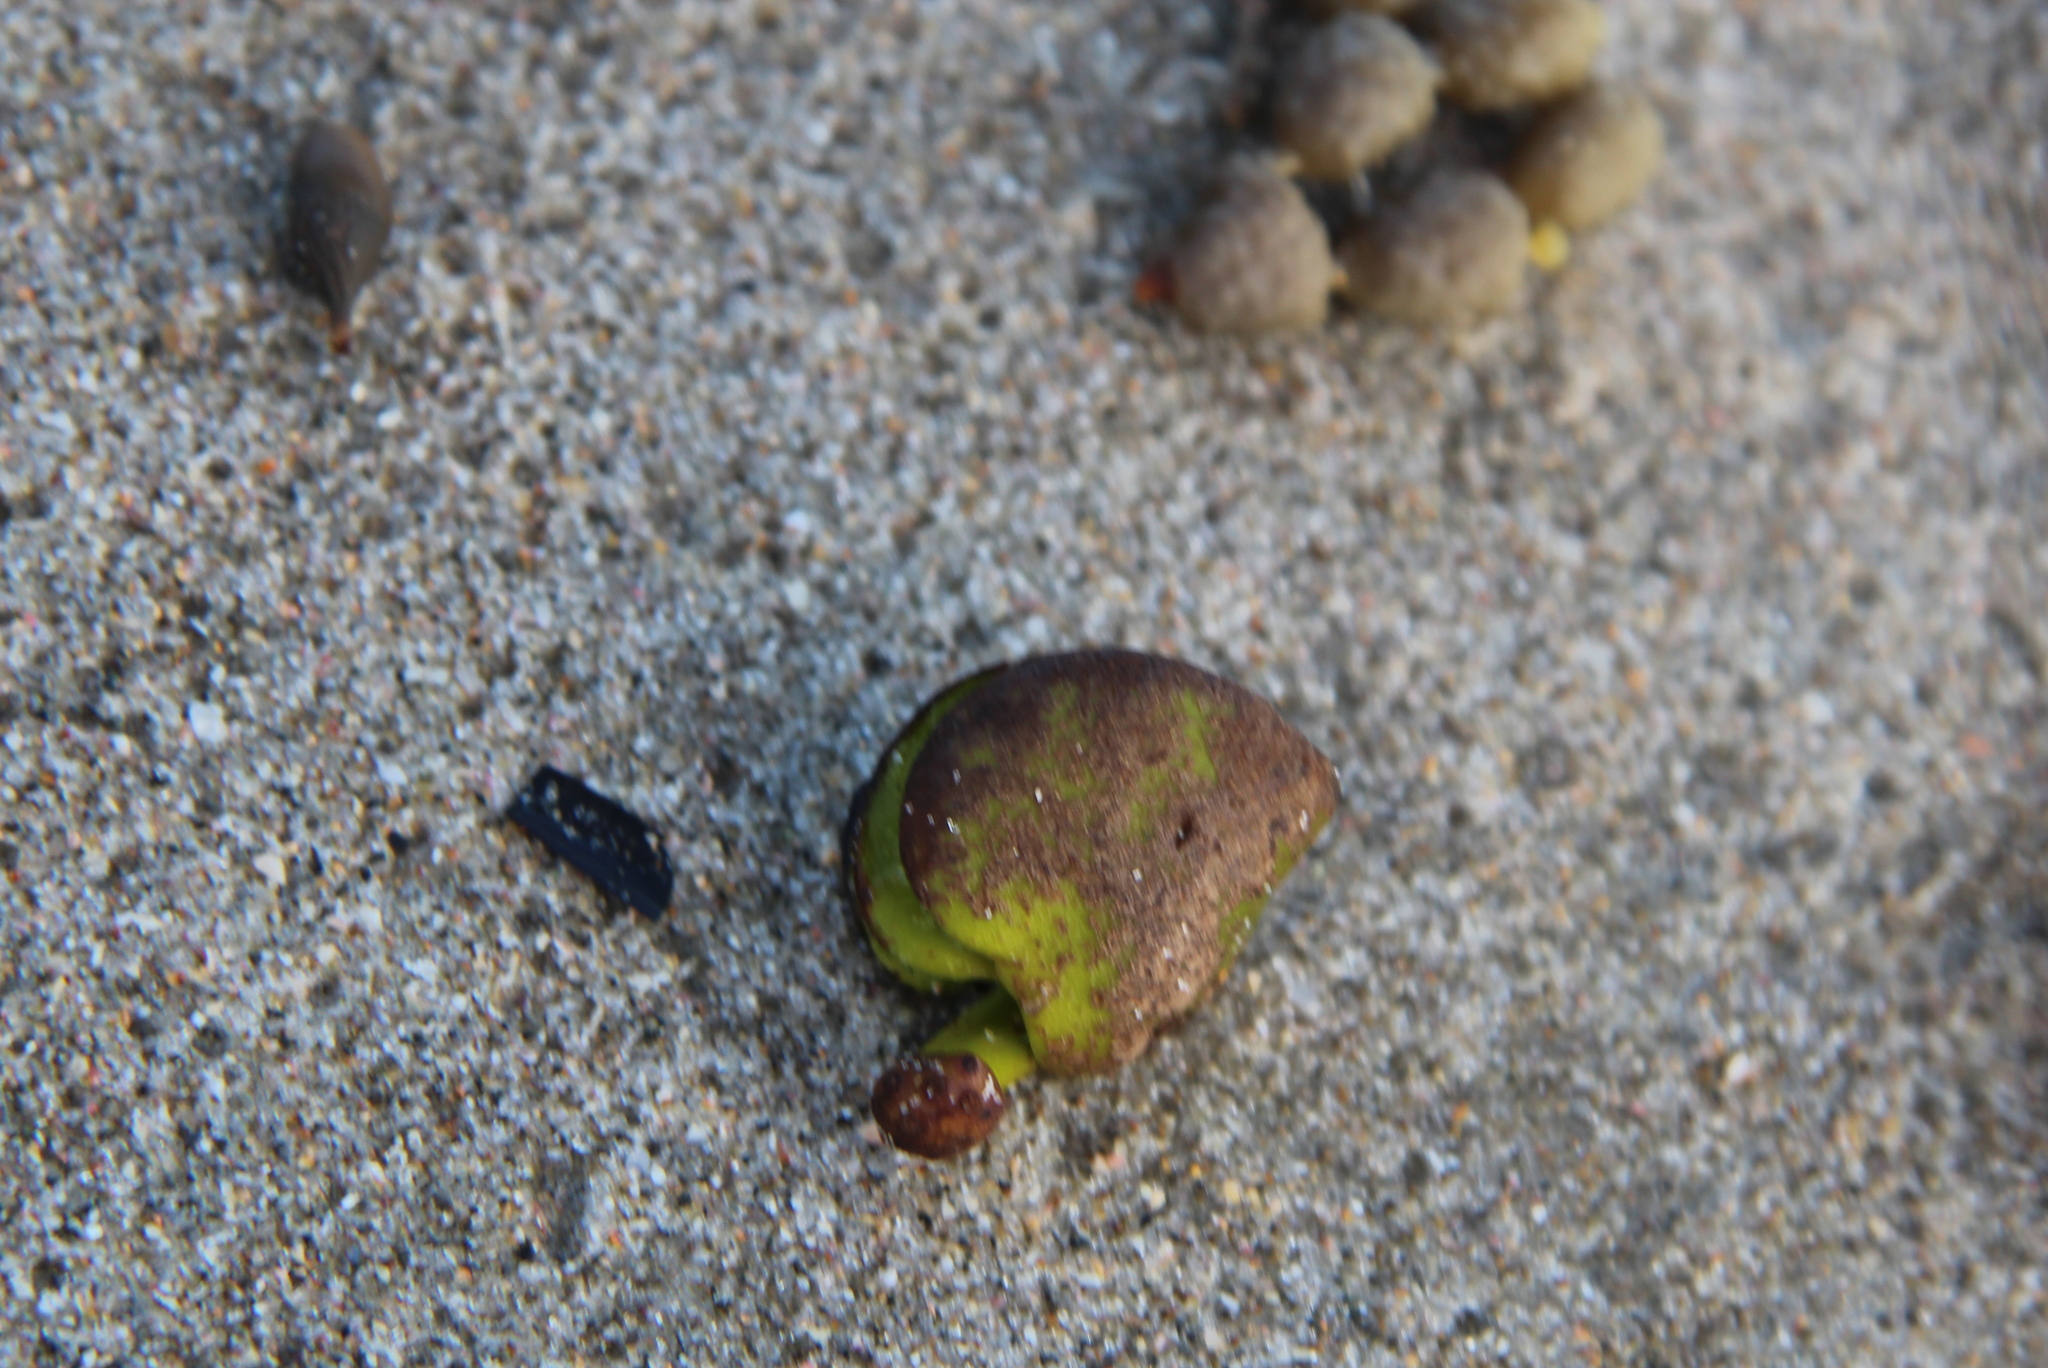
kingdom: Plantae
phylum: Tracheophyta
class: Magnoliopsida
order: Lamiales
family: Acanthaceae
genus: Avicennia
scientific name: Avicennia marina
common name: Gray mangrove
